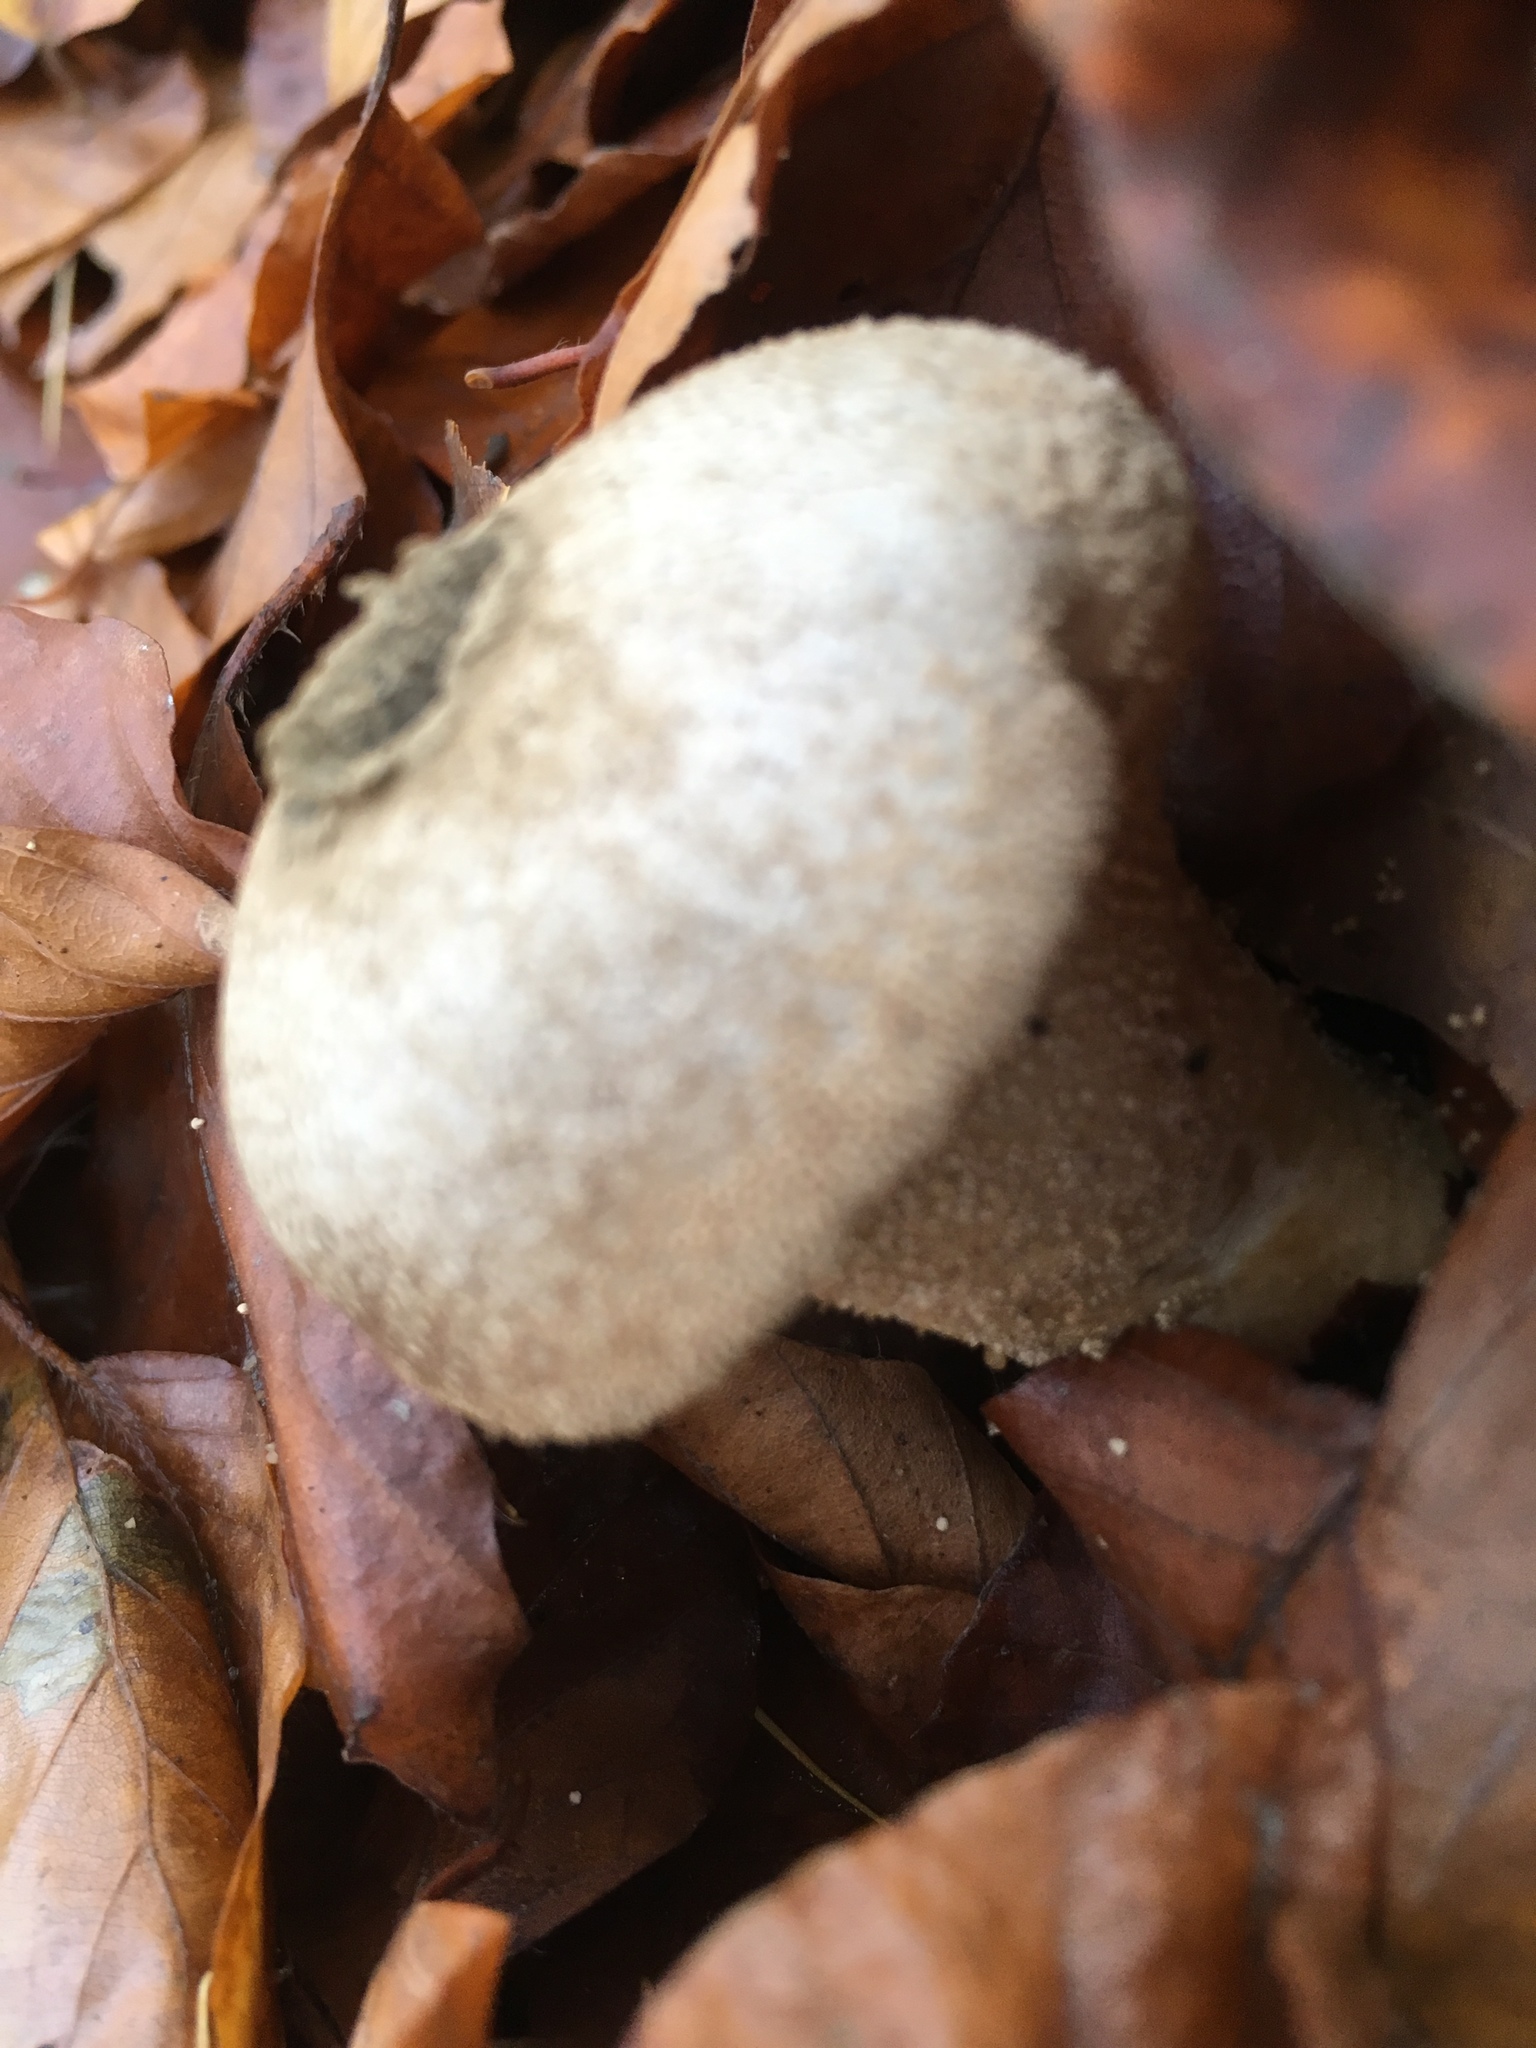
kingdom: Fungi
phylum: Basidiomycota
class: Agaricomycetes
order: Agaricales
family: Lycoperdaceae
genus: Lycoperdon
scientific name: Lycoperdon perlatum
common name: Common puffball
